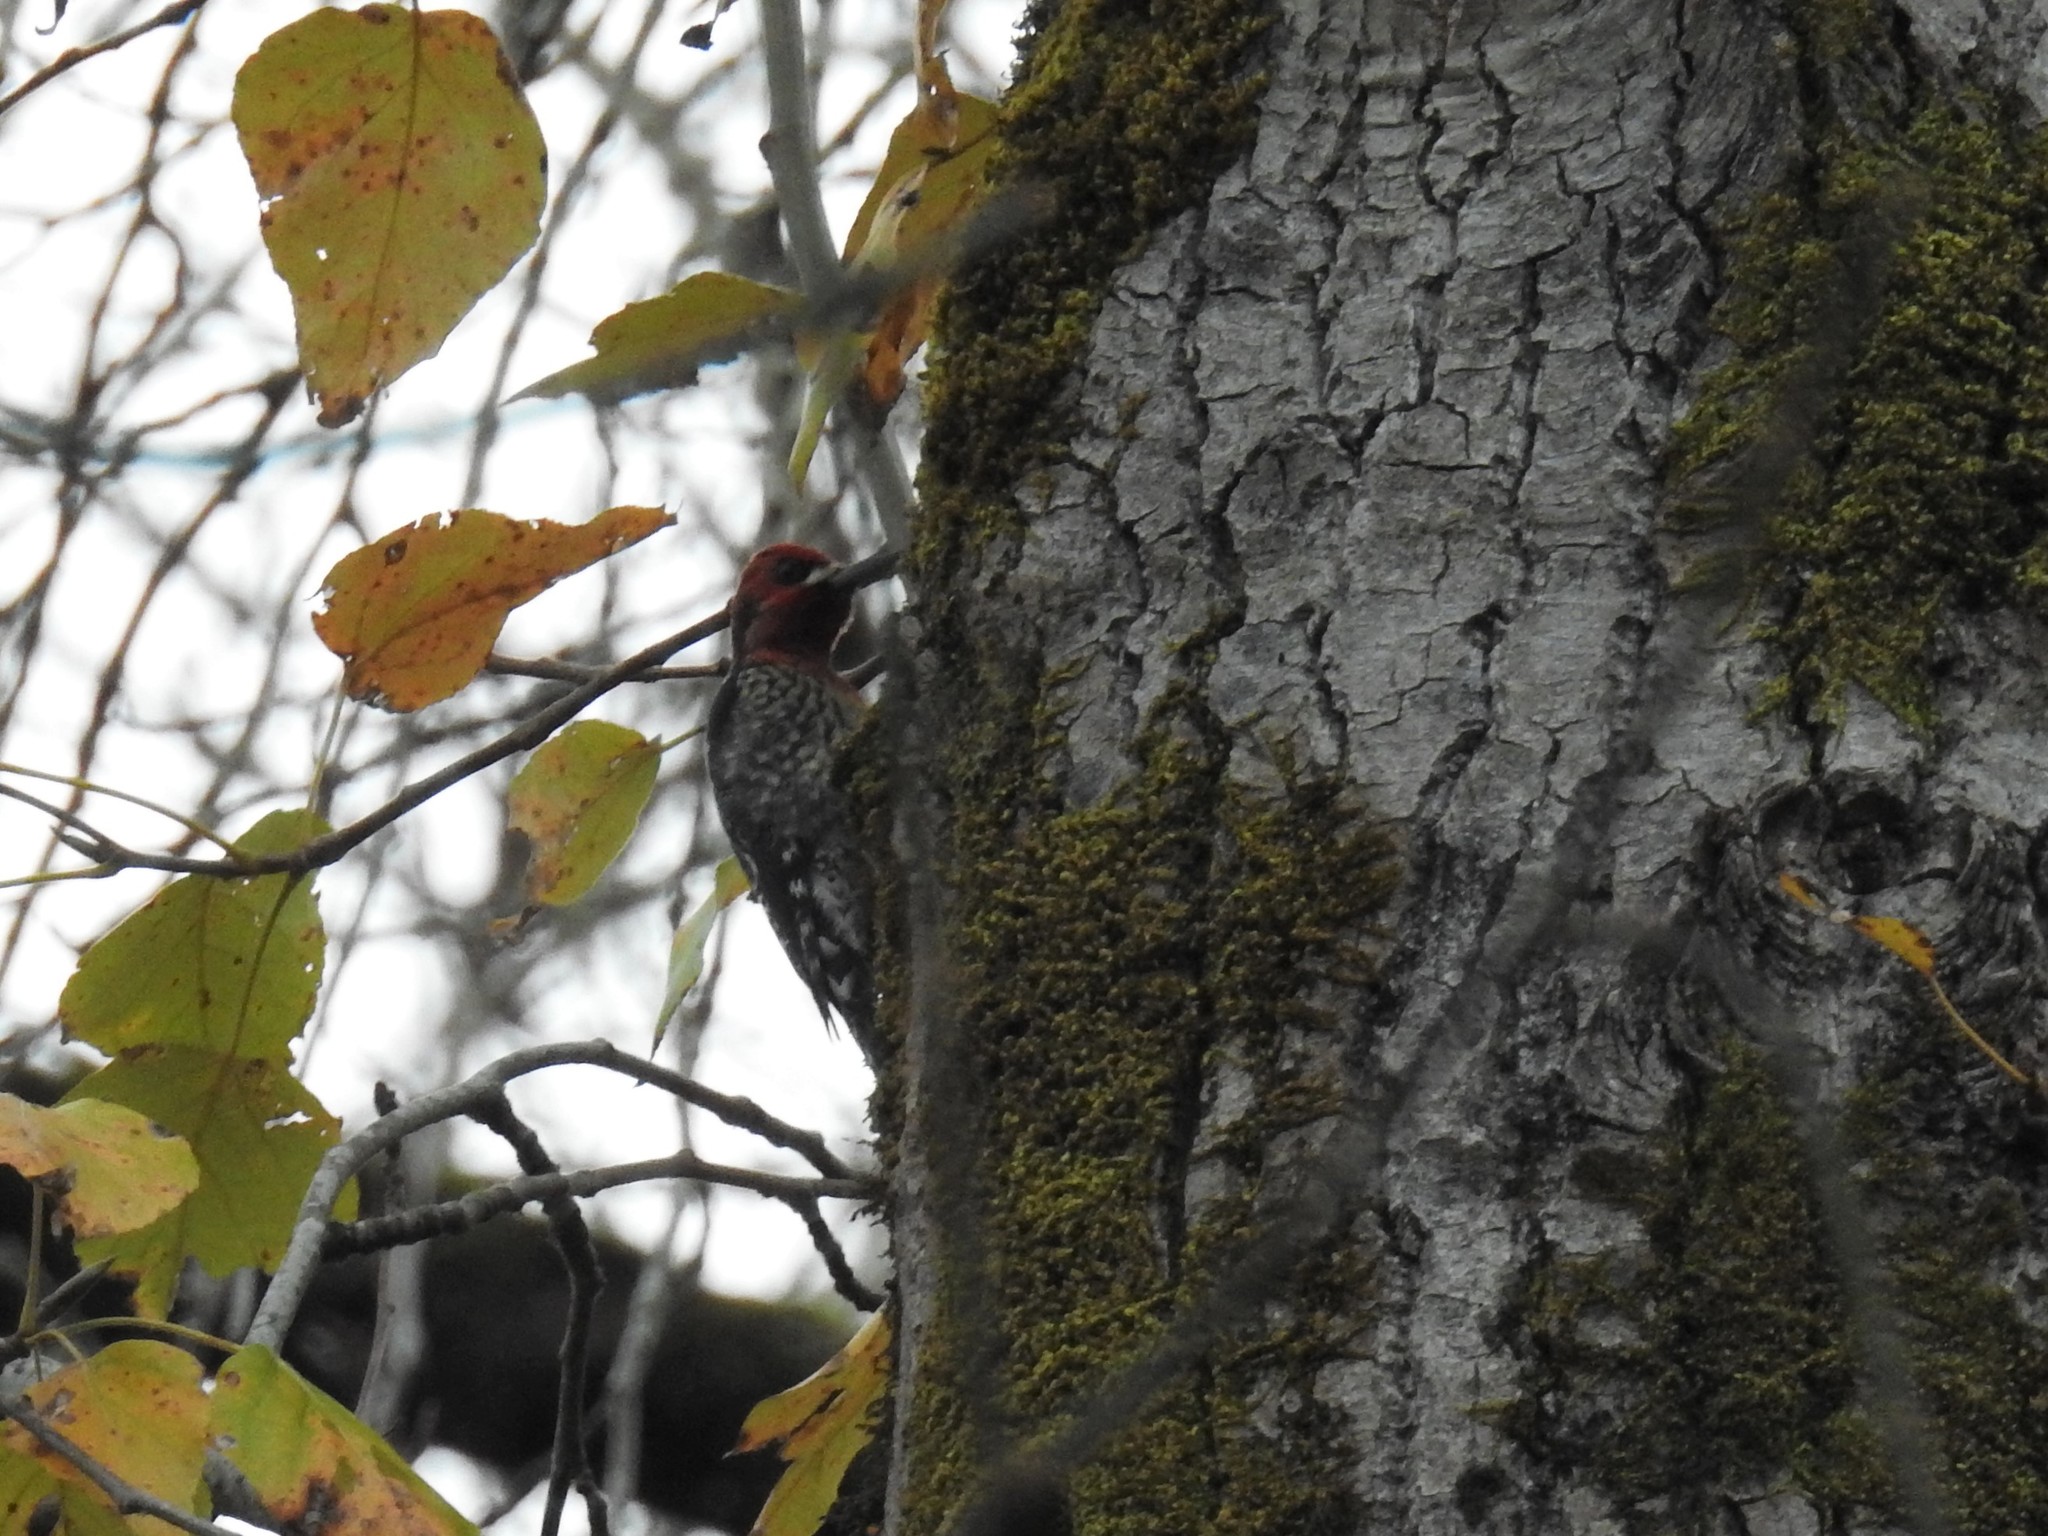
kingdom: Animalia
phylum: Chordata
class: Aves
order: Piciformes
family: Picidae
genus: Sphyrapicus
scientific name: Sphyrapicus ruber
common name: Red-breasted sapsucker
